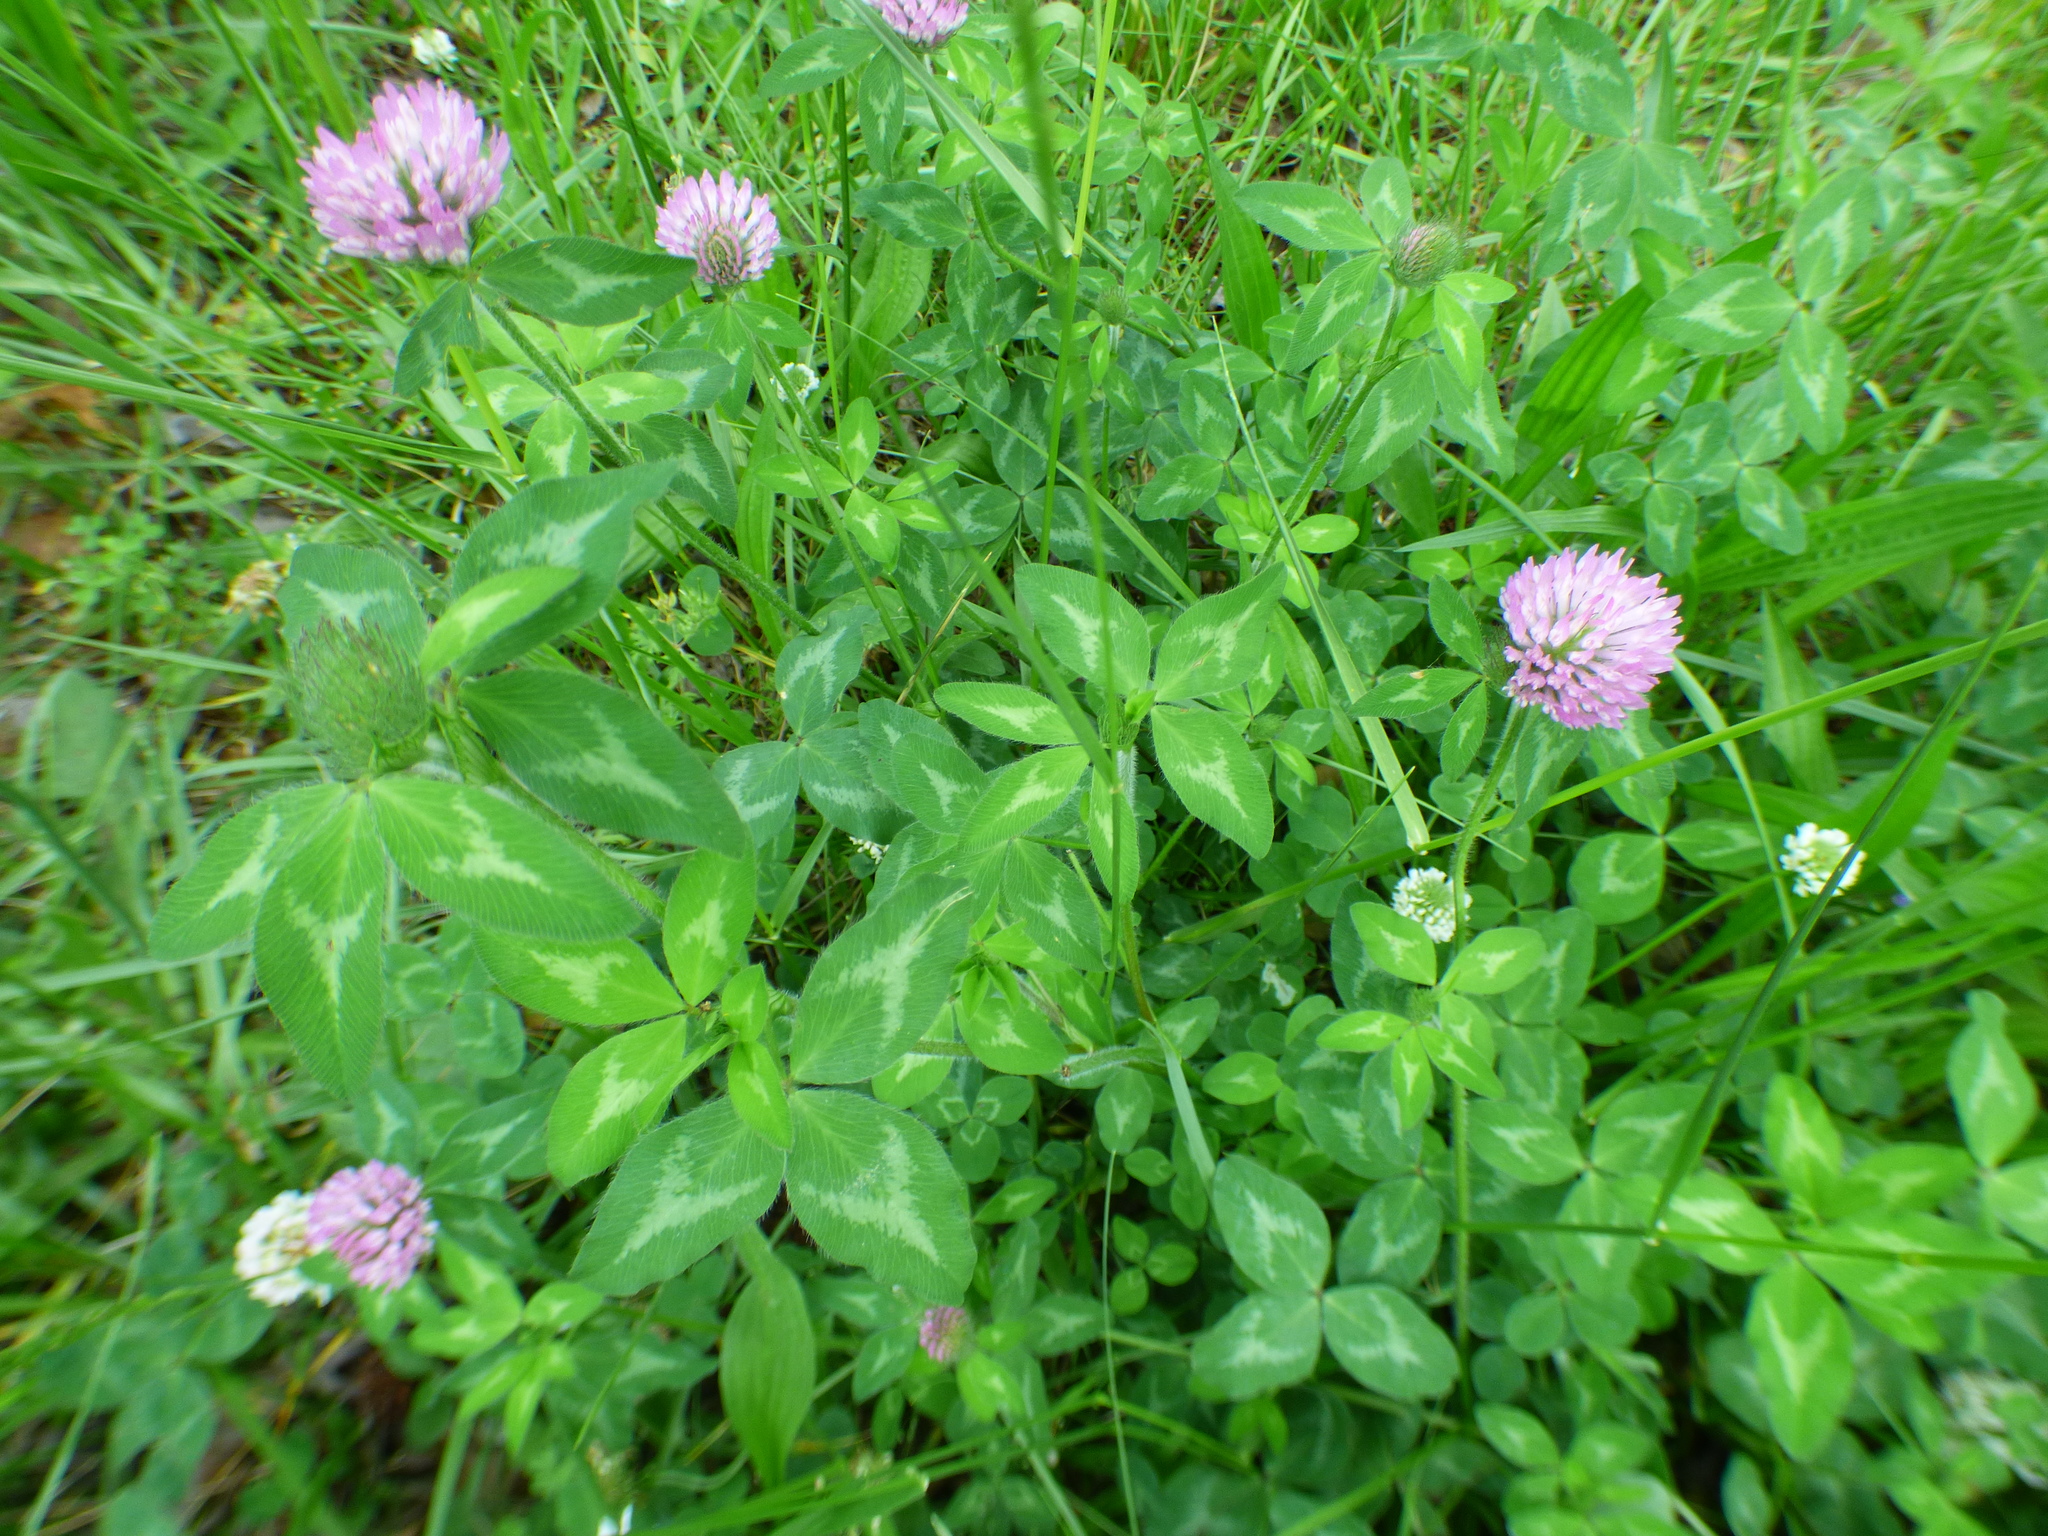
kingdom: Plantae
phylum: Tracheophyta
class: Magnoliopsida
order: Fabales
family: Fabaceae
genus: Trifolium
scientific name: Trifolium pratense
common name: Red clover
